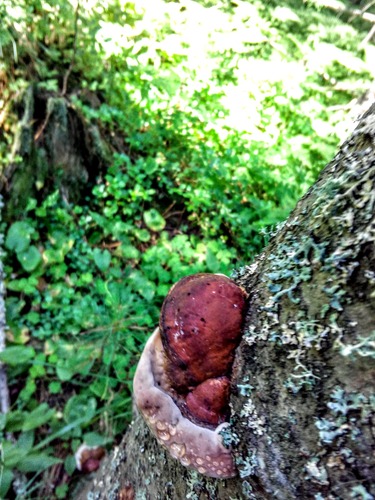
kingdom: Fungi
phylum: Basidiomycota
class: Agaricomycetes
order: Polyporales
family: Fomitopsidaceae
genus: Fomitopsis
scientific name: Fomitopsis pinicola
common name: Red-belted bracket
